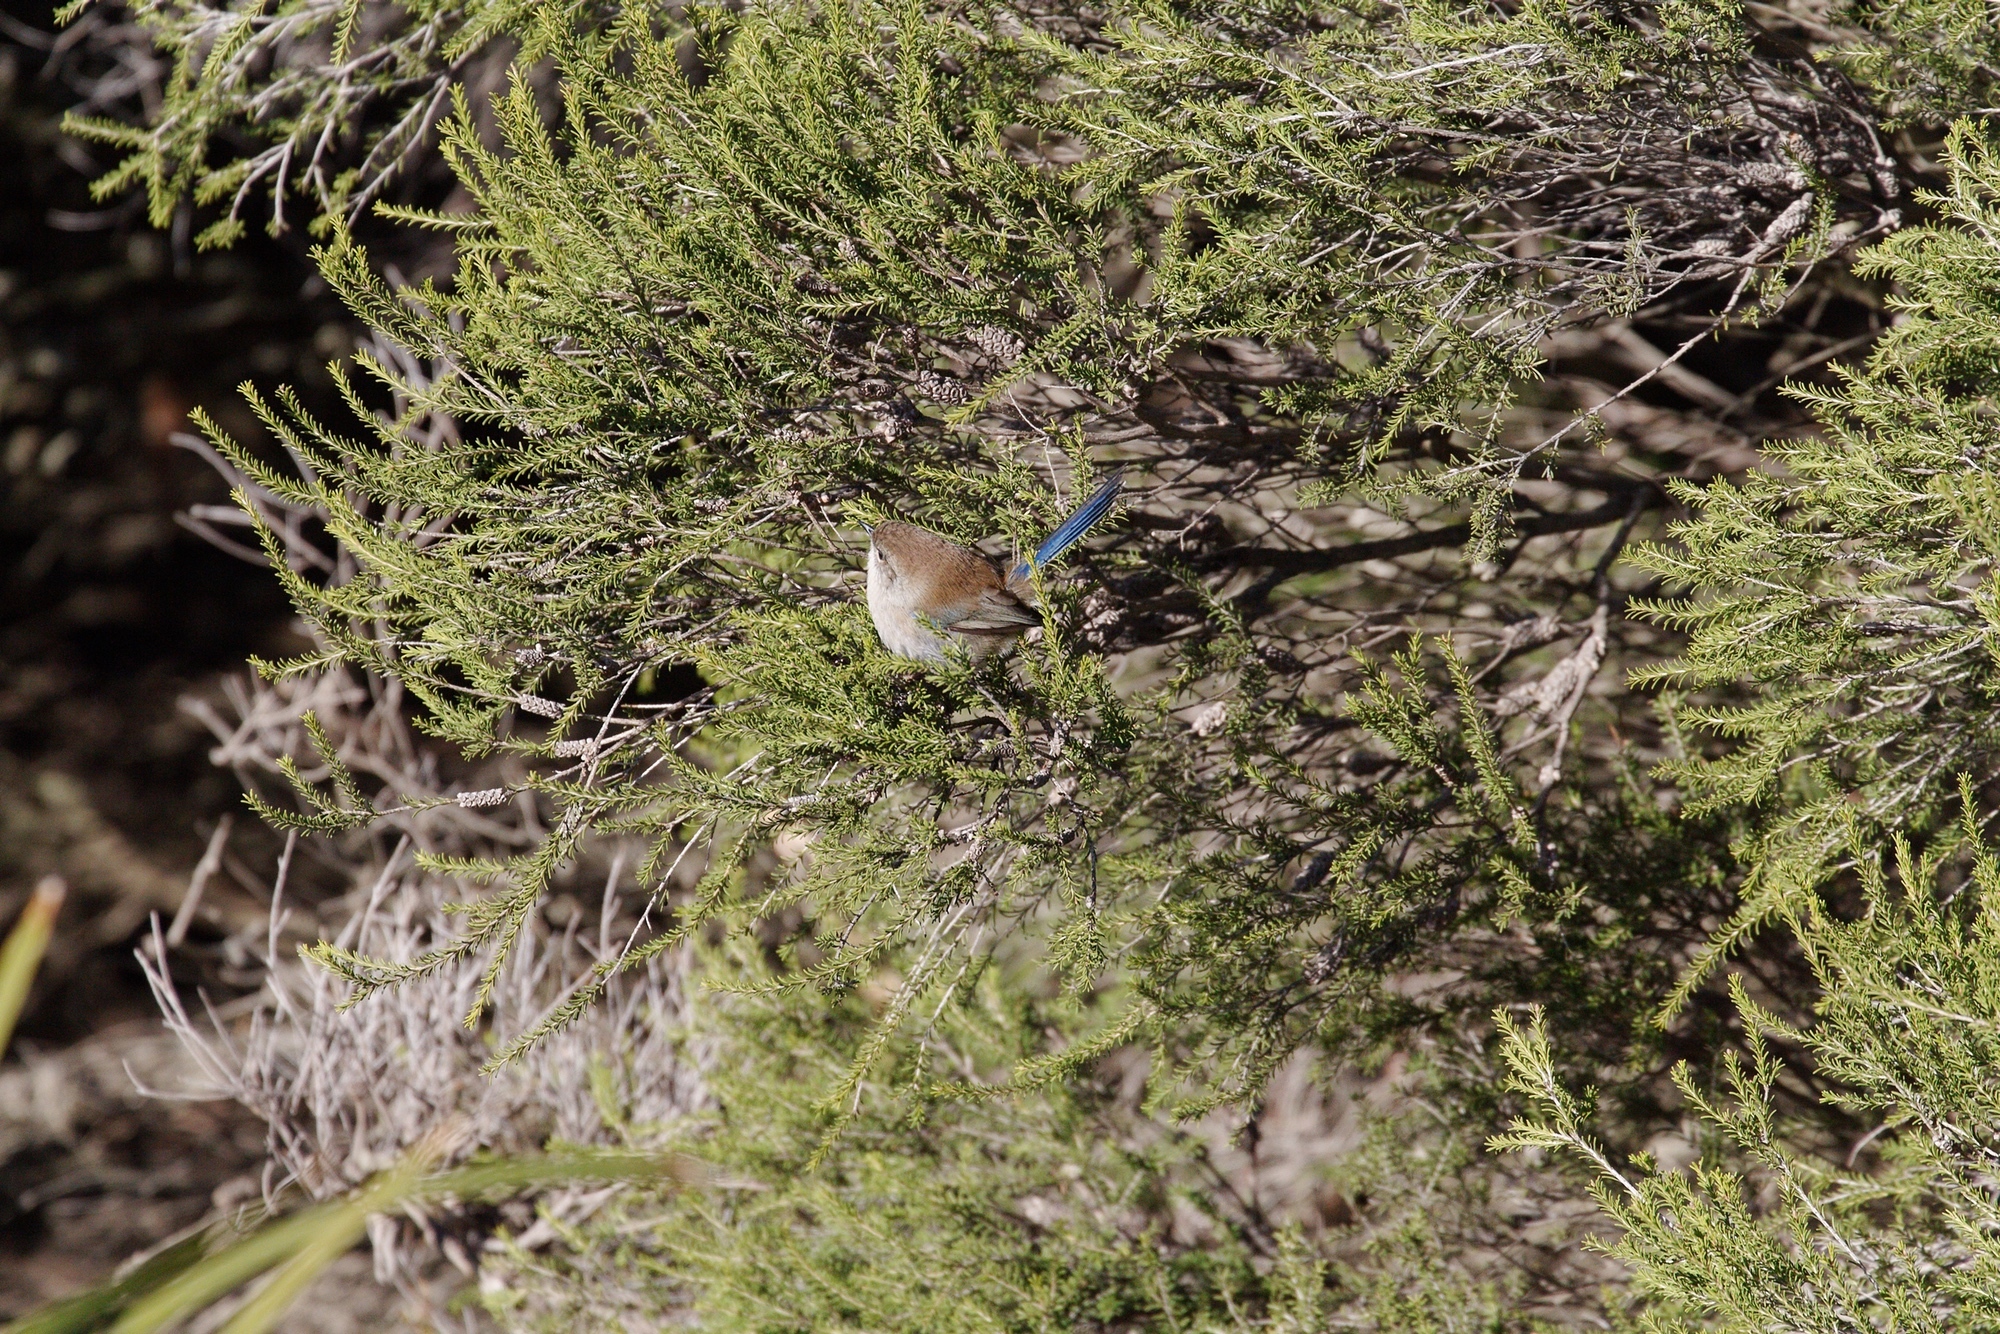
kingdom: Animalia
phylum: Chordata
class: Aves
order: Passeriformes
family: Maluridae
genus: Malurus
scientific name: Malurus cyaneus
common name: Superb fairywren
